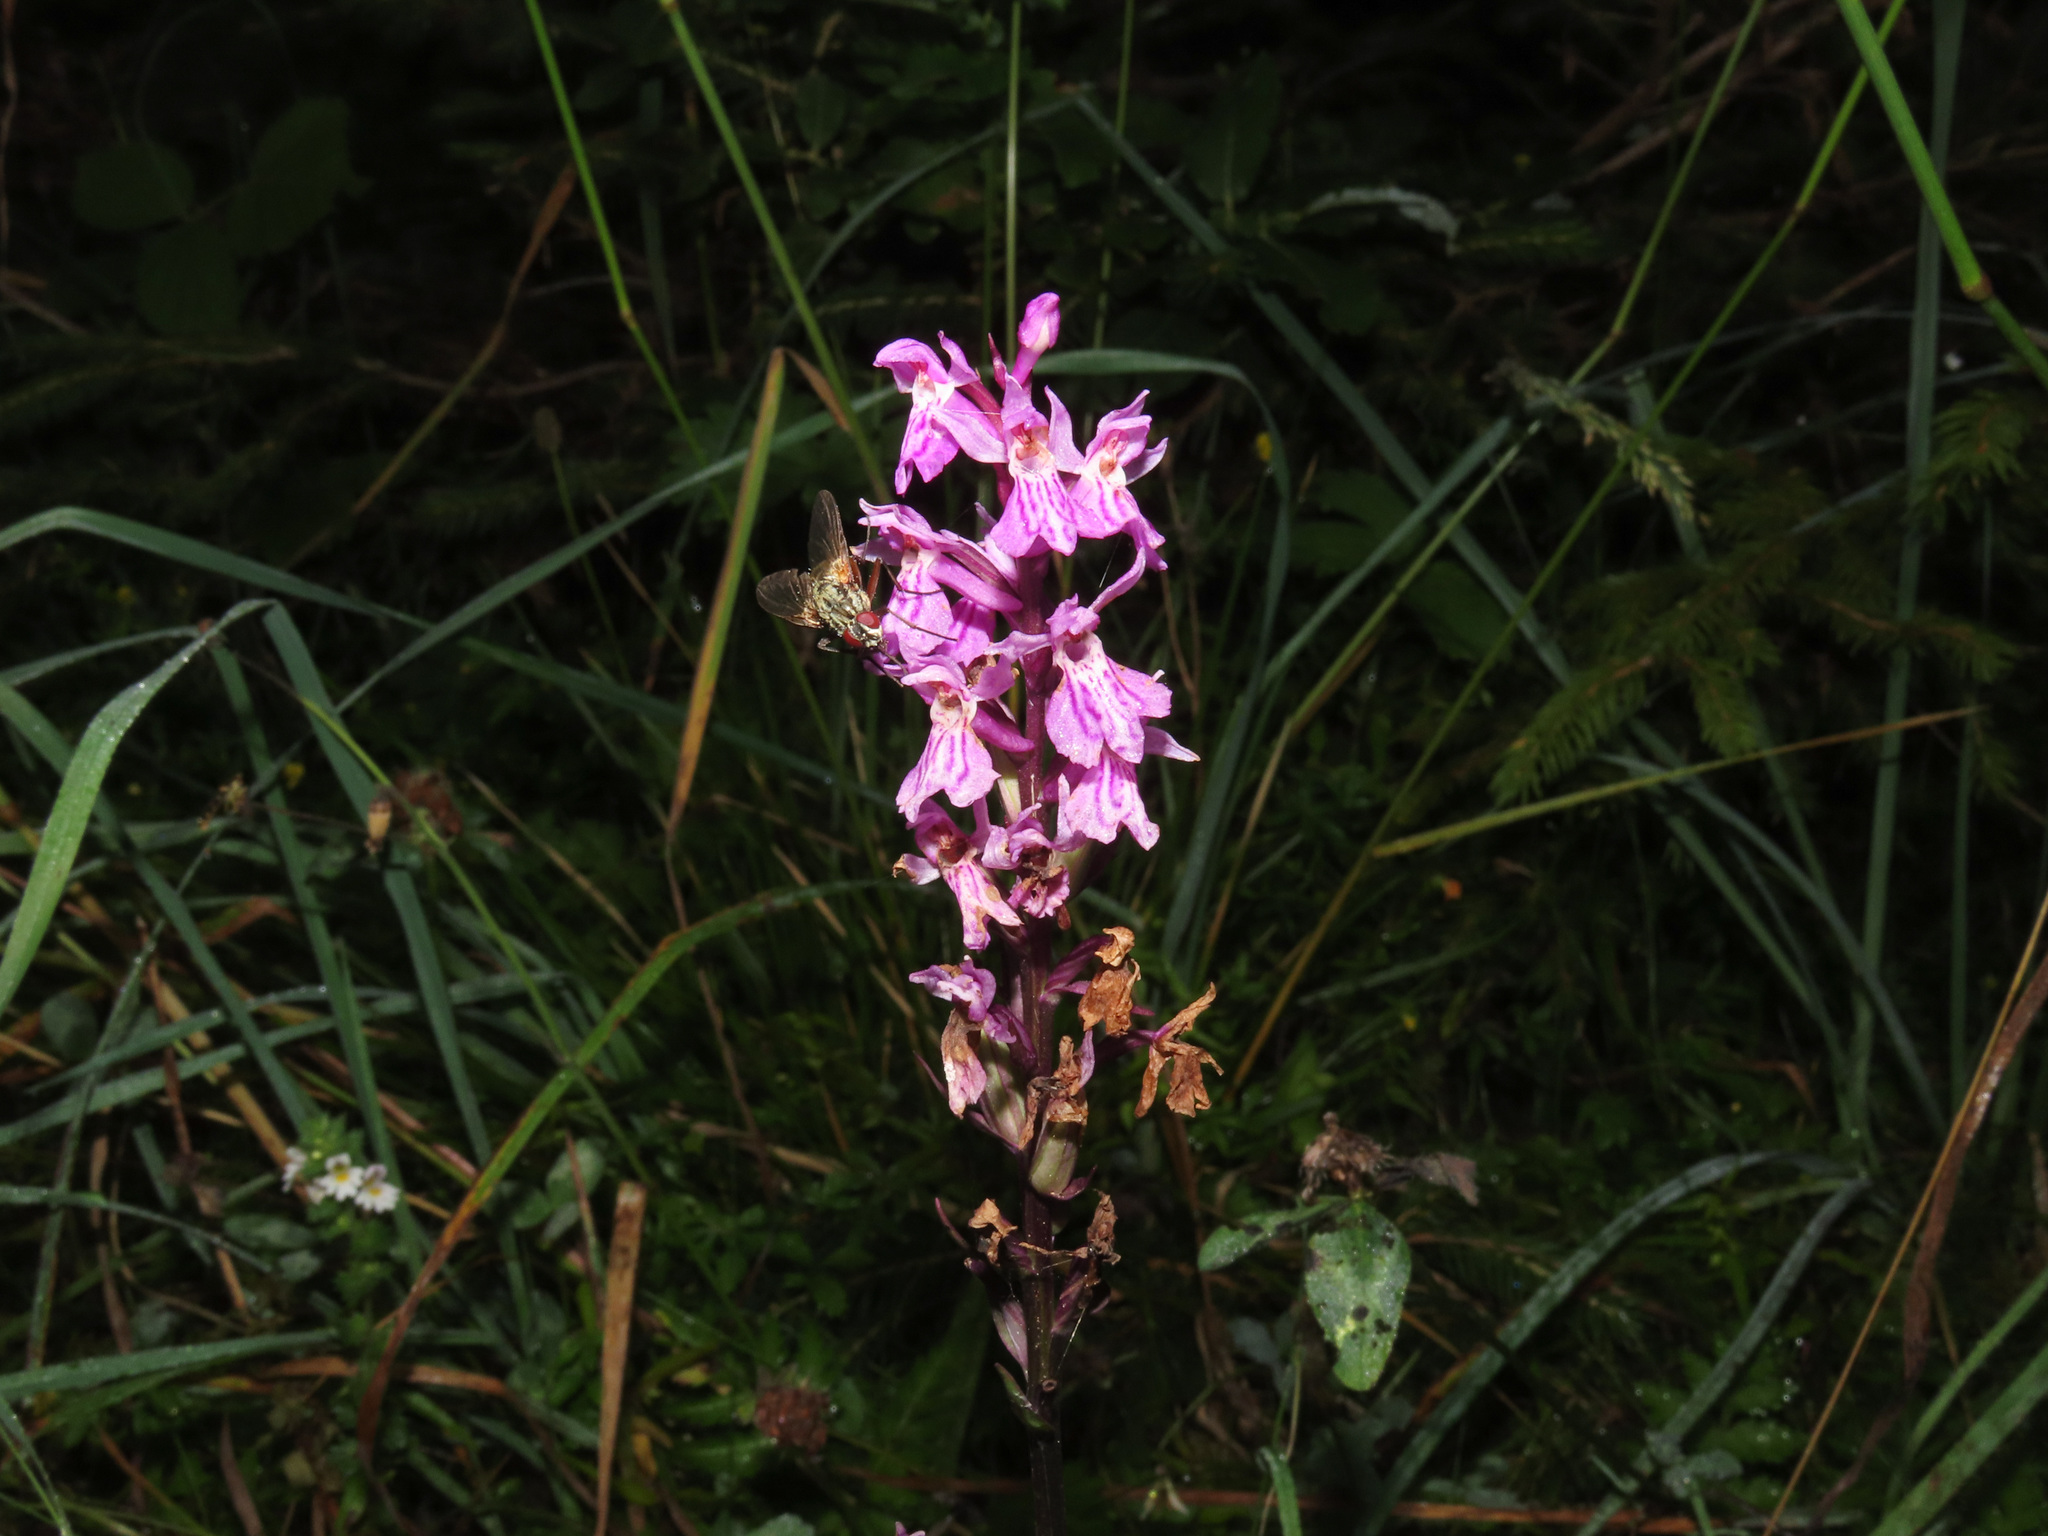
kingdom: Plantae
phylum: Tracheophyta
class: Liliopsida
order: Asparagales
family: Orchidaceae
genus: Dactylorhiza
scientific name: Dactylorhiza maculata
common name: Heath spotted-orchid
